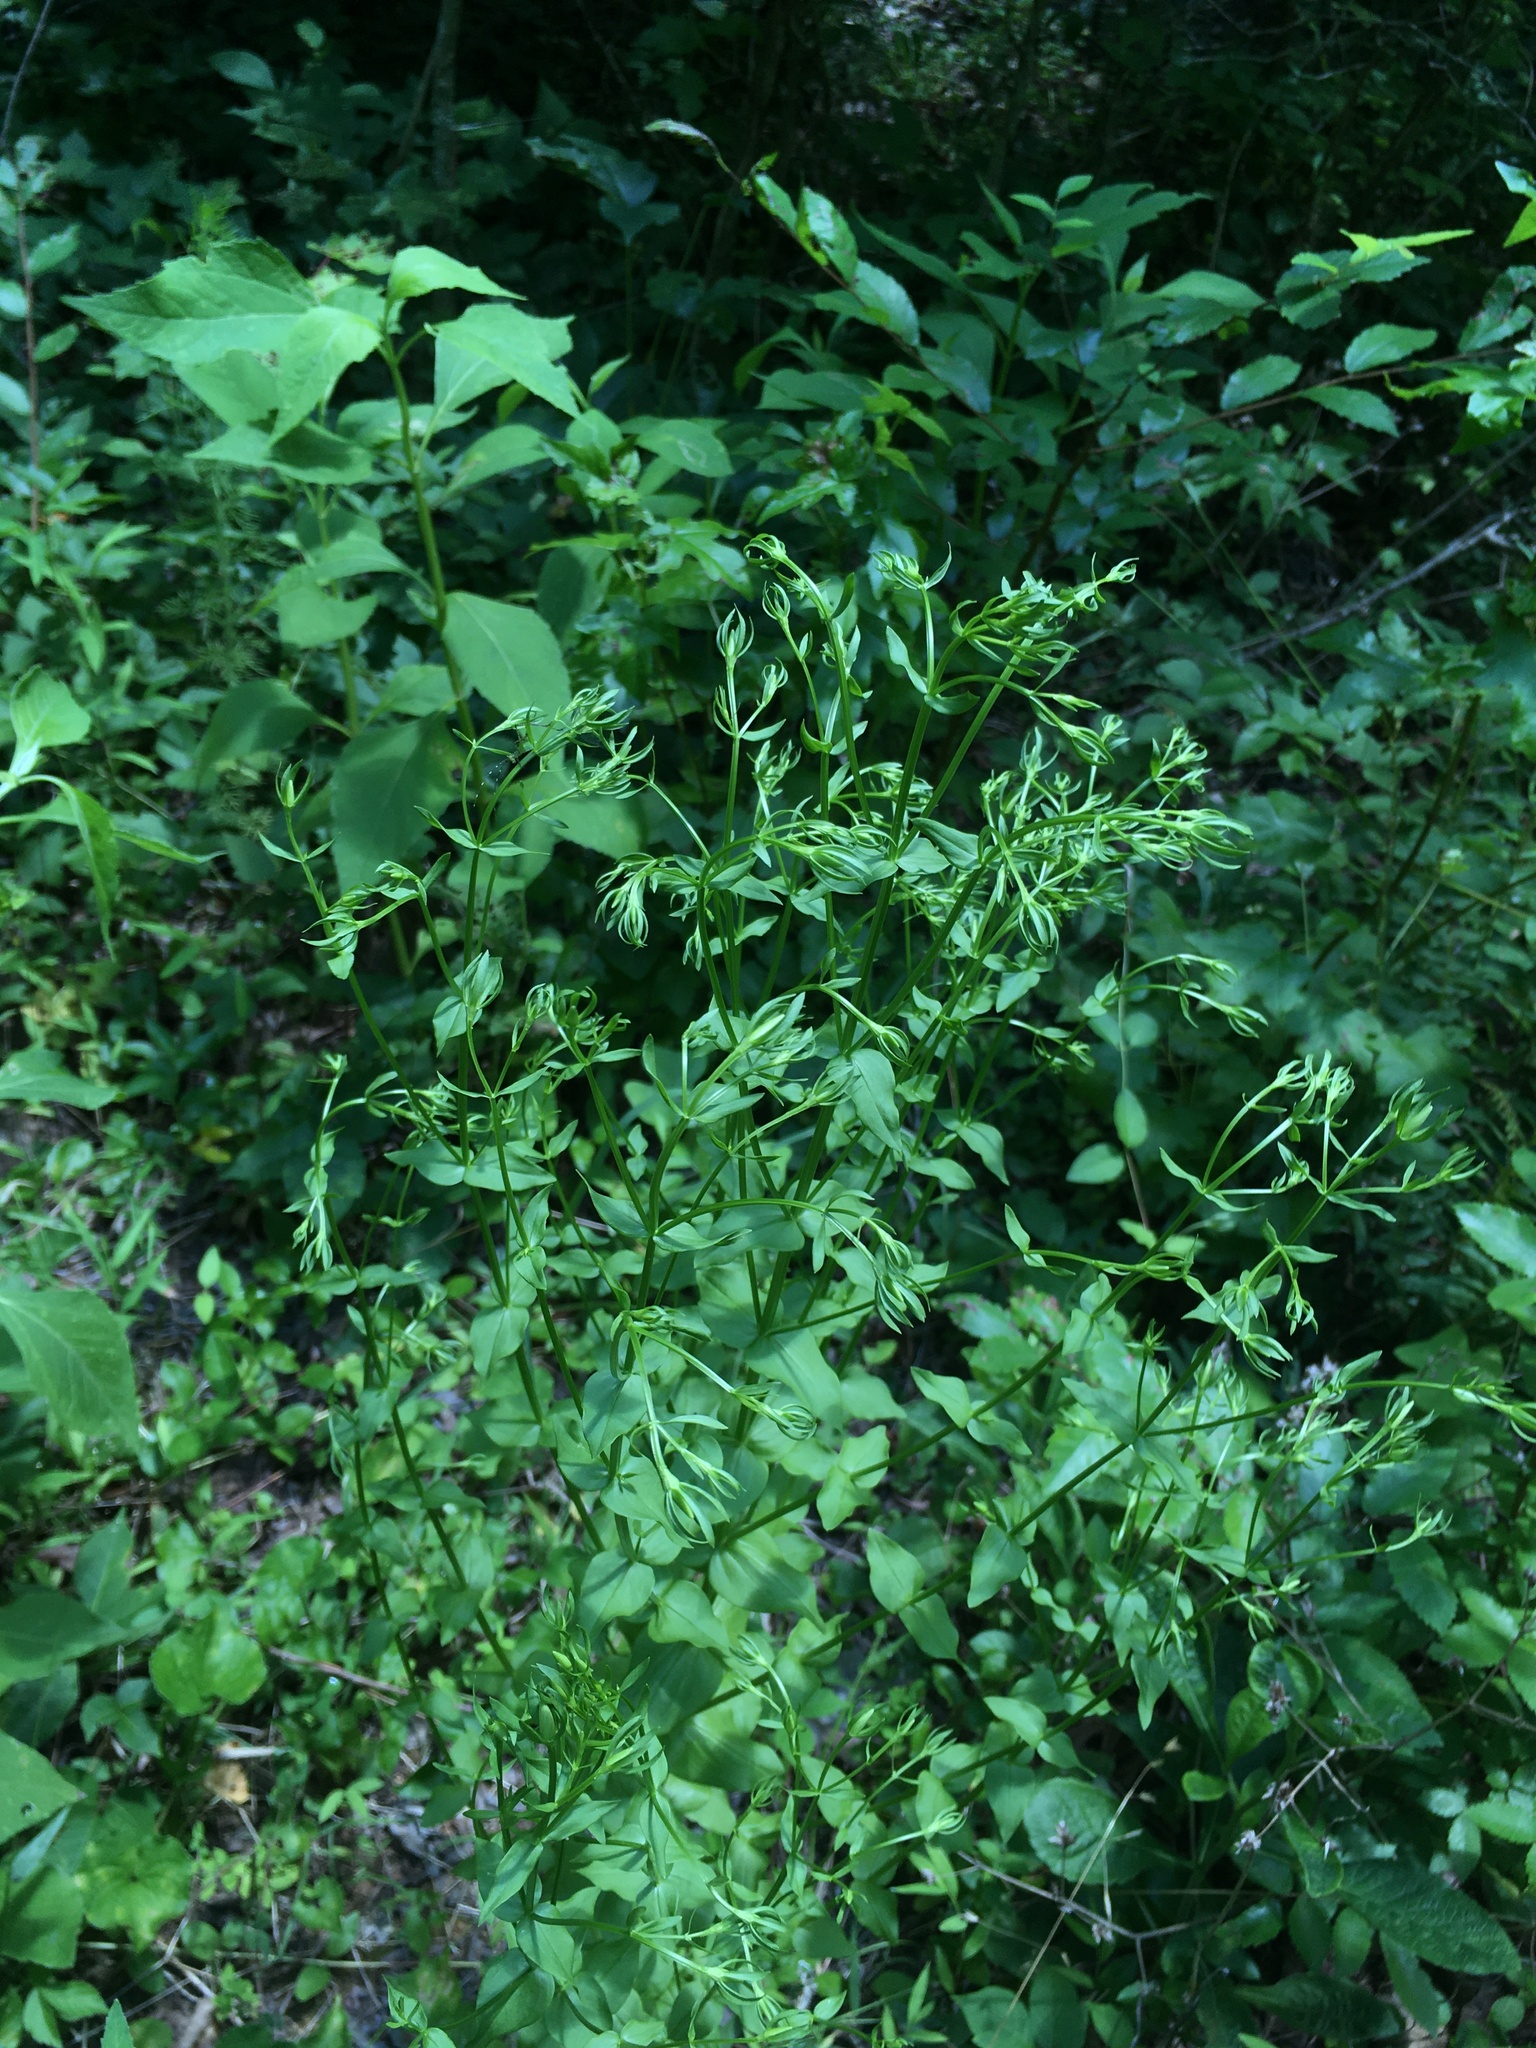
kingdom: Plantae
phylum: Tracheophyta
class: Magnoliopsida
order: Gentianales
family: Gentianaceae
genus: Sabatia
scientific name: Sabatia angularis
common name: Rose-pink
